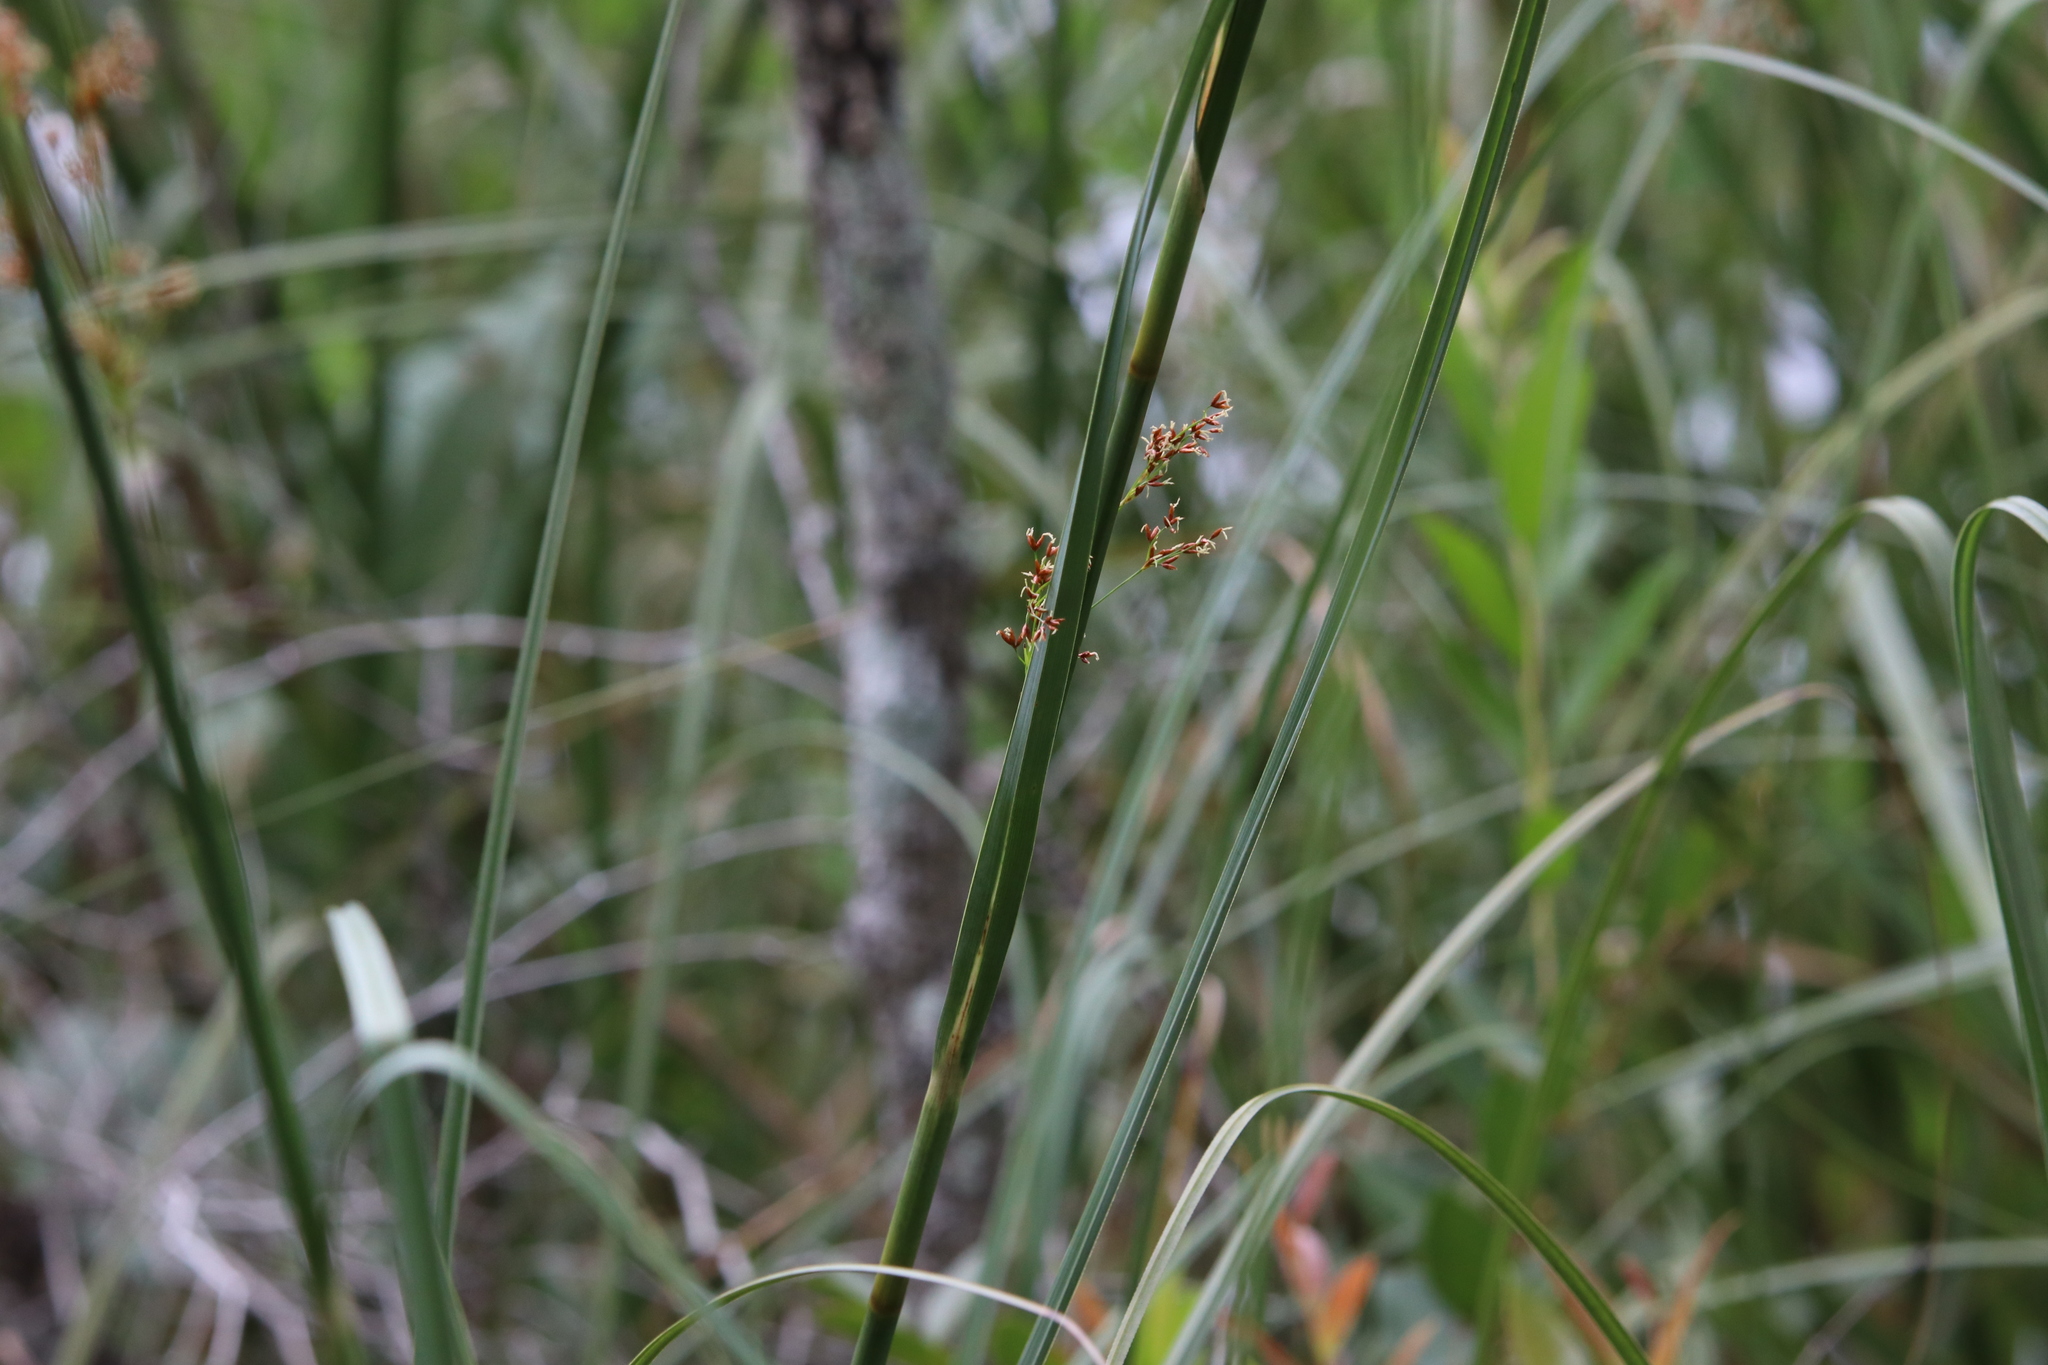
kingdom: Plantae
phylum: Tracheophyta
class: Liliopsida
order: Poales
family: Cyperaceae
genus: Cladium
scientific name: Cladium mariscus
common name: Great fen-sedge
